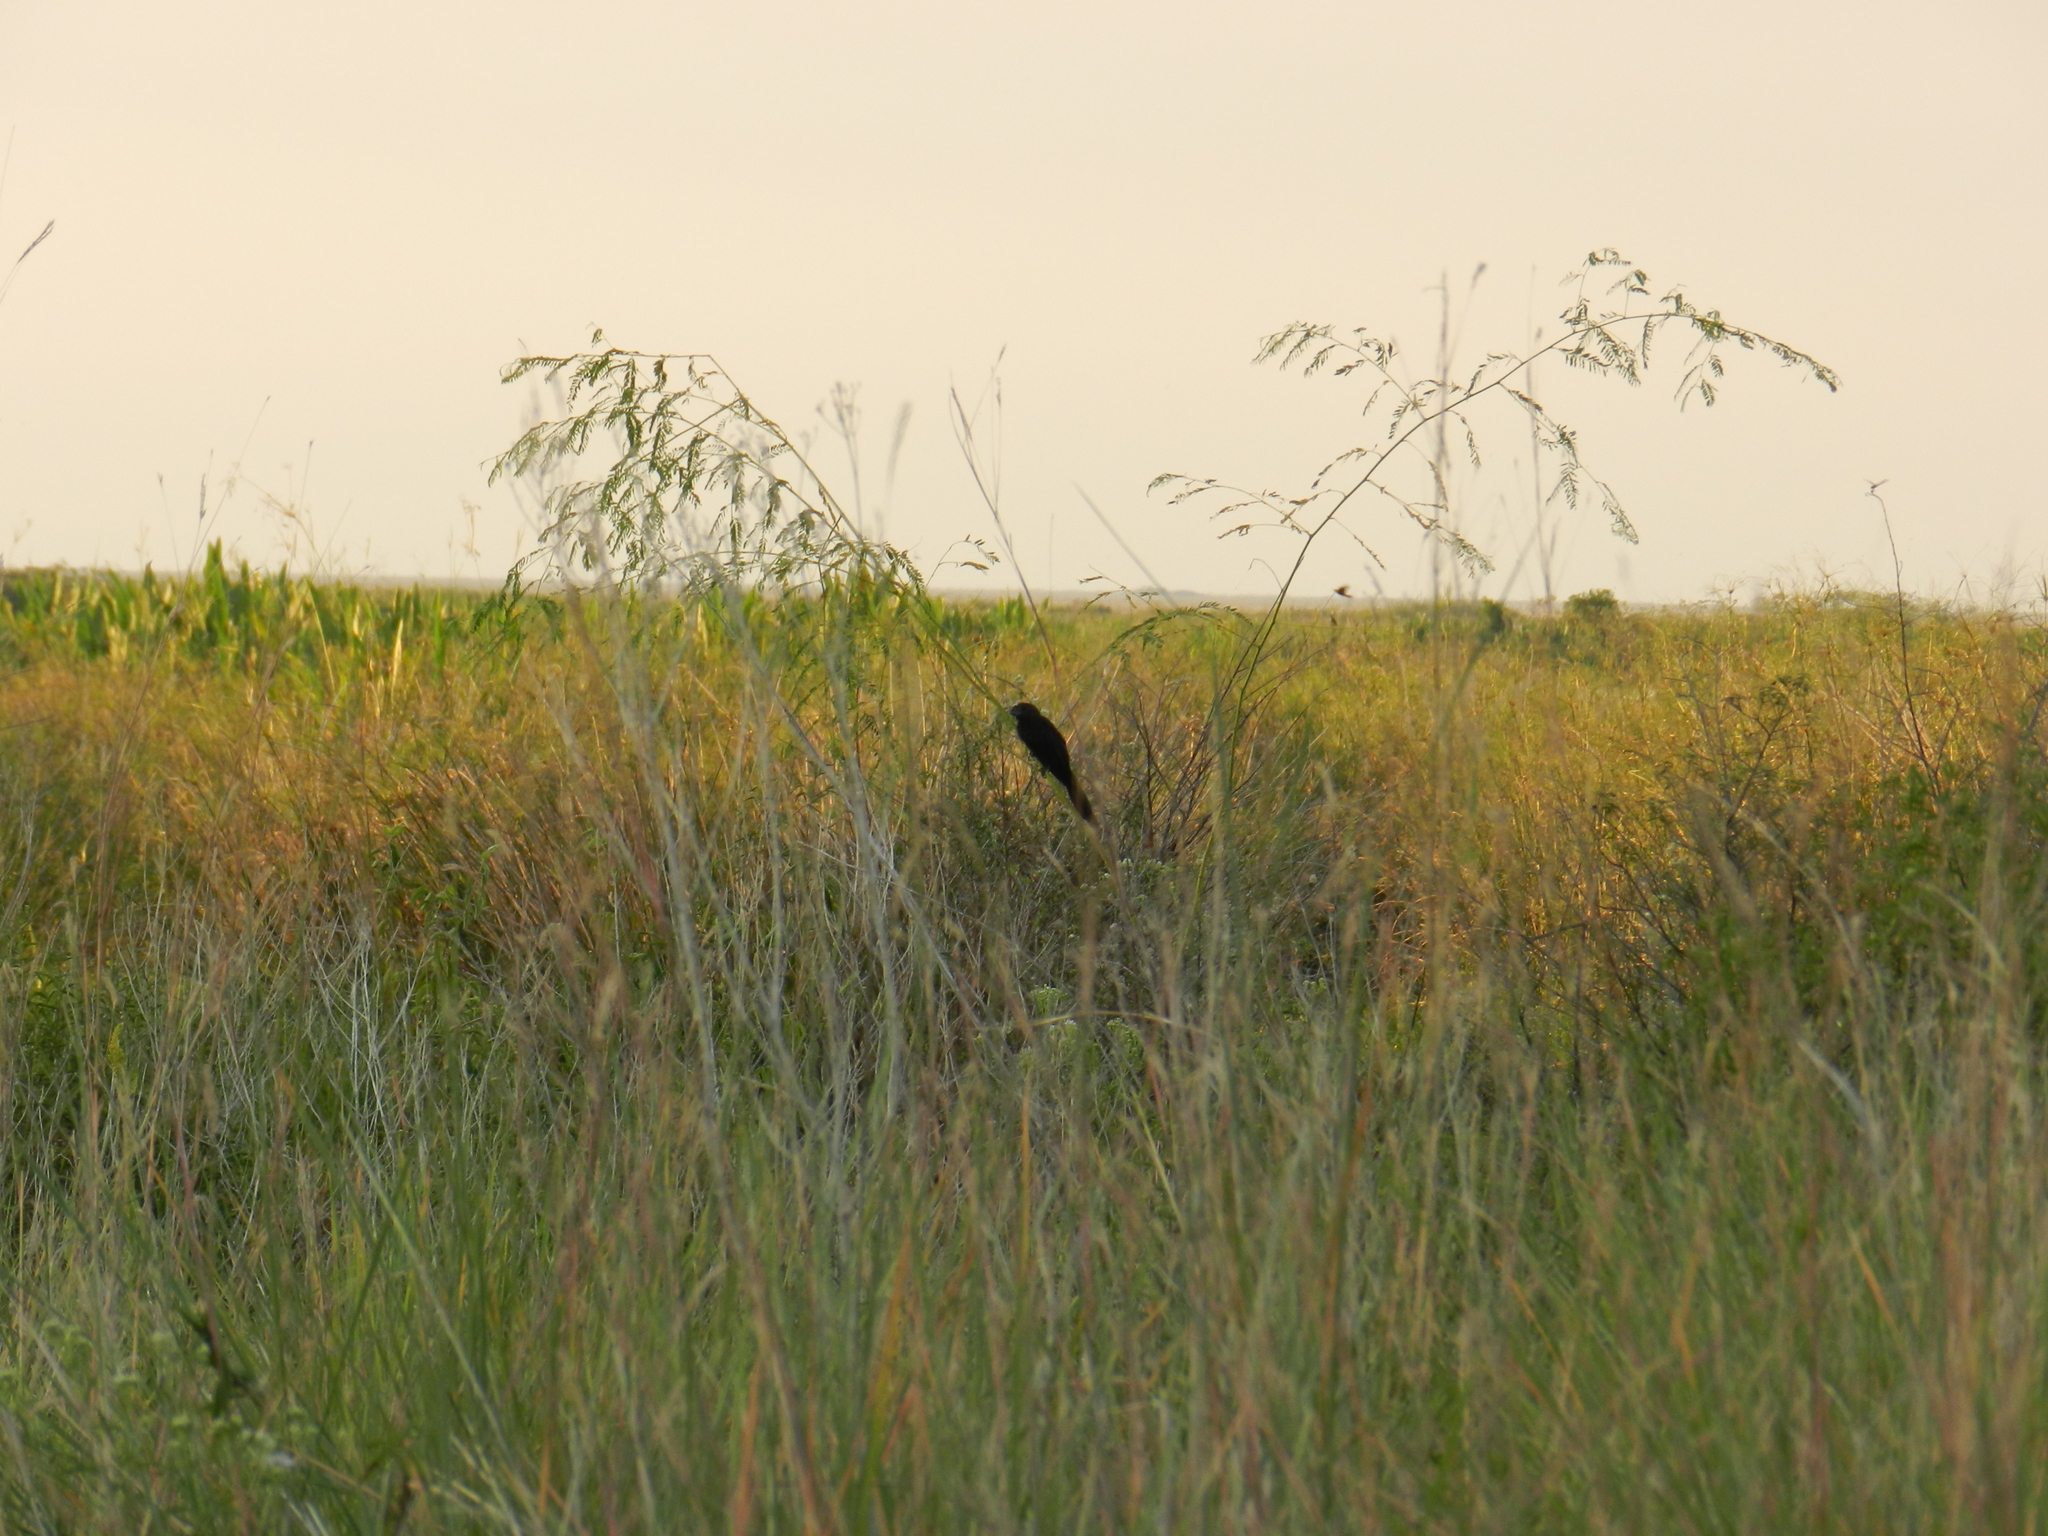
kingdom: Animalia
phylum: Chordata
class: Aves
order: Cuculiformes
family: Cuculidae
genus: Crotophaga
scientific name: Crotophaga ani
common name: Smooth-billed ani
